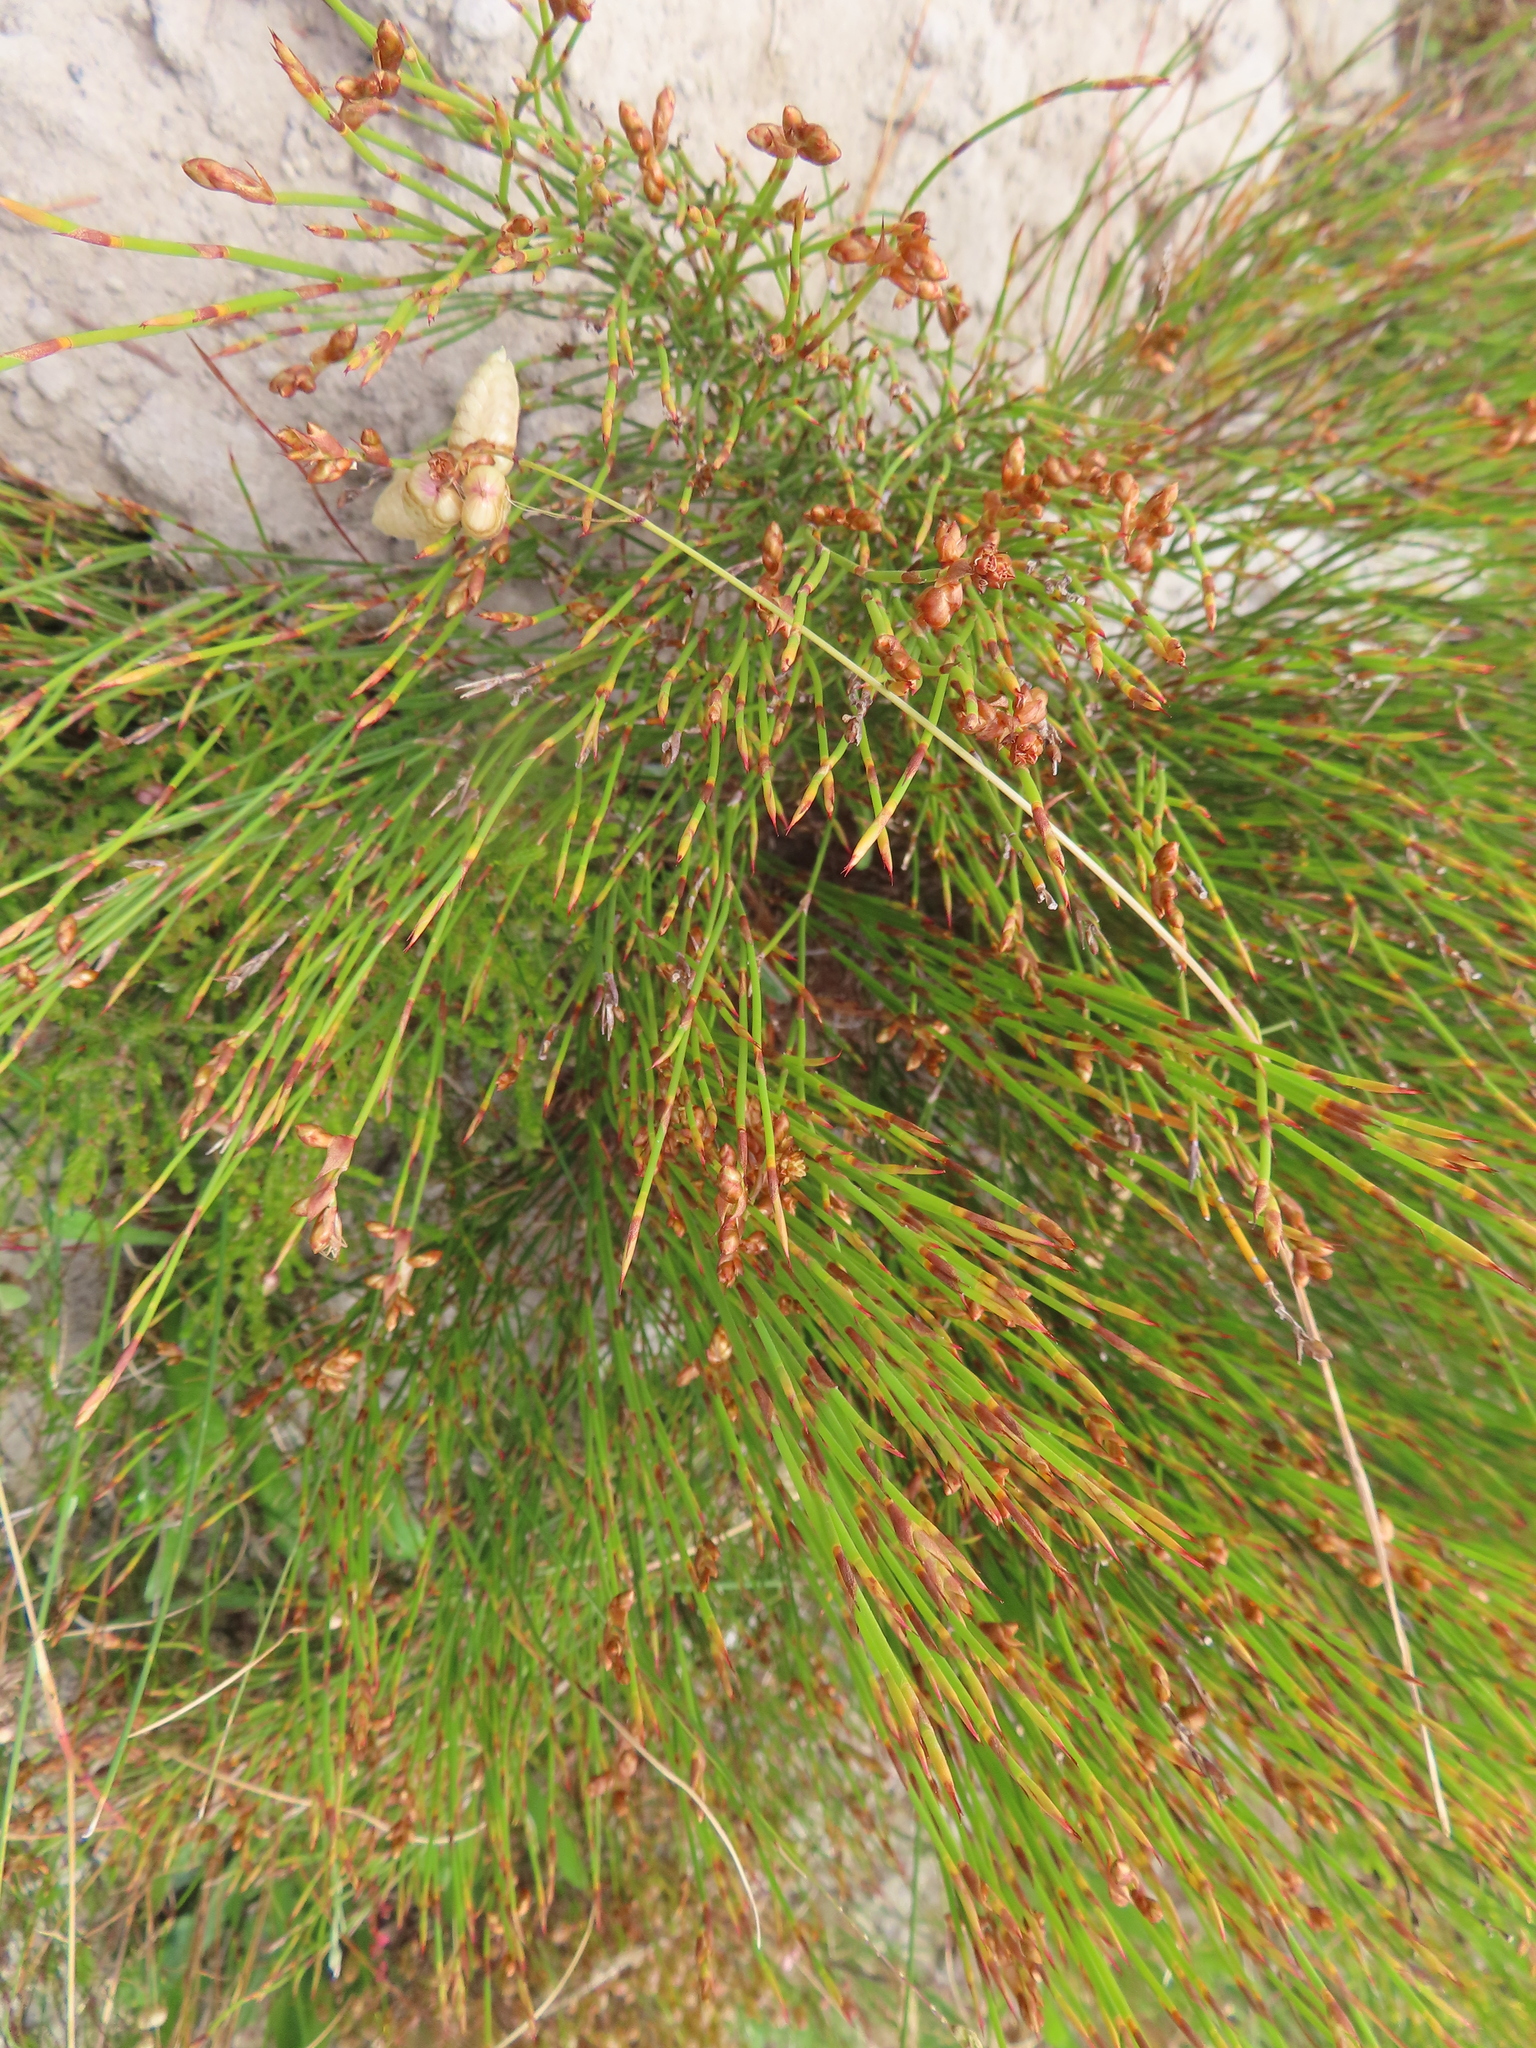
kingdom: Plantae
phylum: Tracheophyta
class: Liliopsida
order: Poales
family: Restionaceae
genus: Mastersiella
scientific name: Mastersiella digitata
